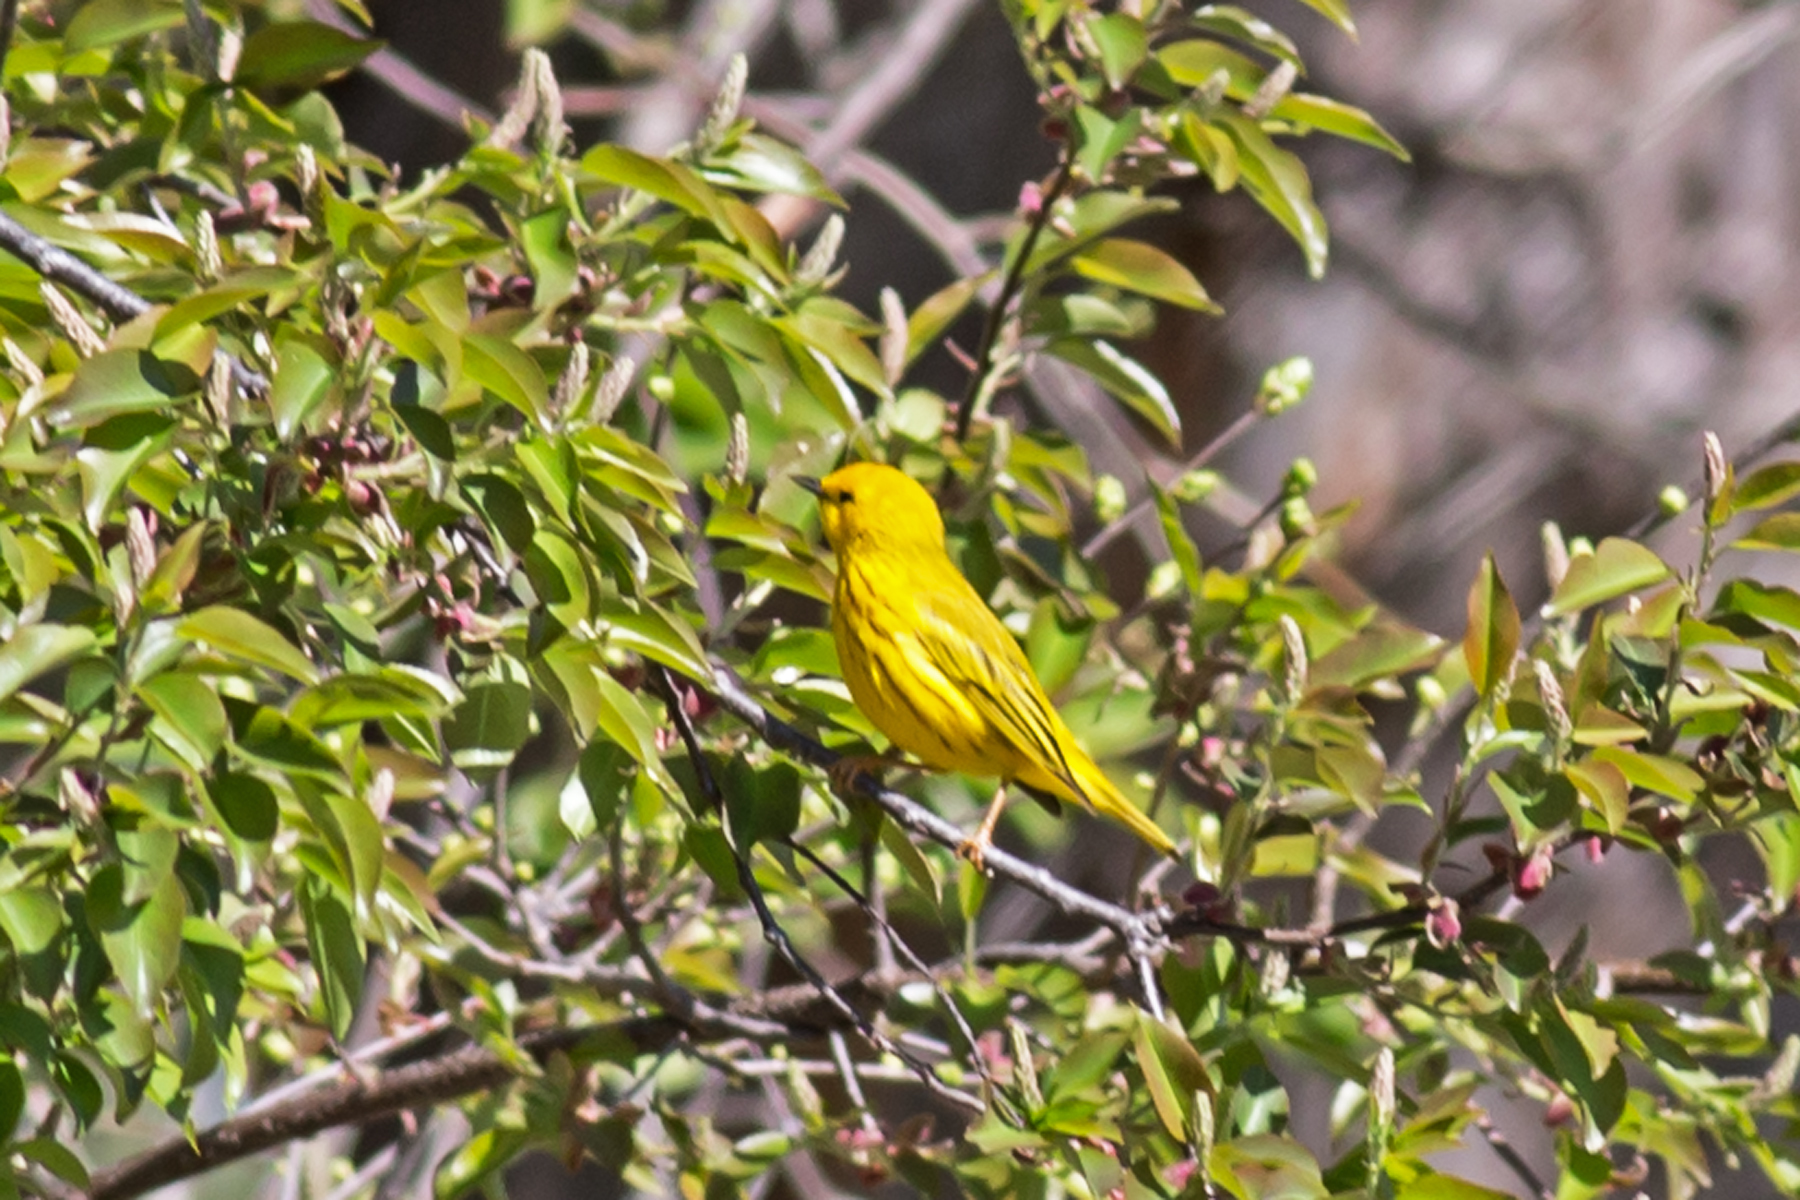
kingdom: Animalia
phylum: Chordata
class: Aves
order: Passeriformes
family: Parulidae
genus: Setophaga
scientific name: Setophaga petechia
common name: Yellow warbler
